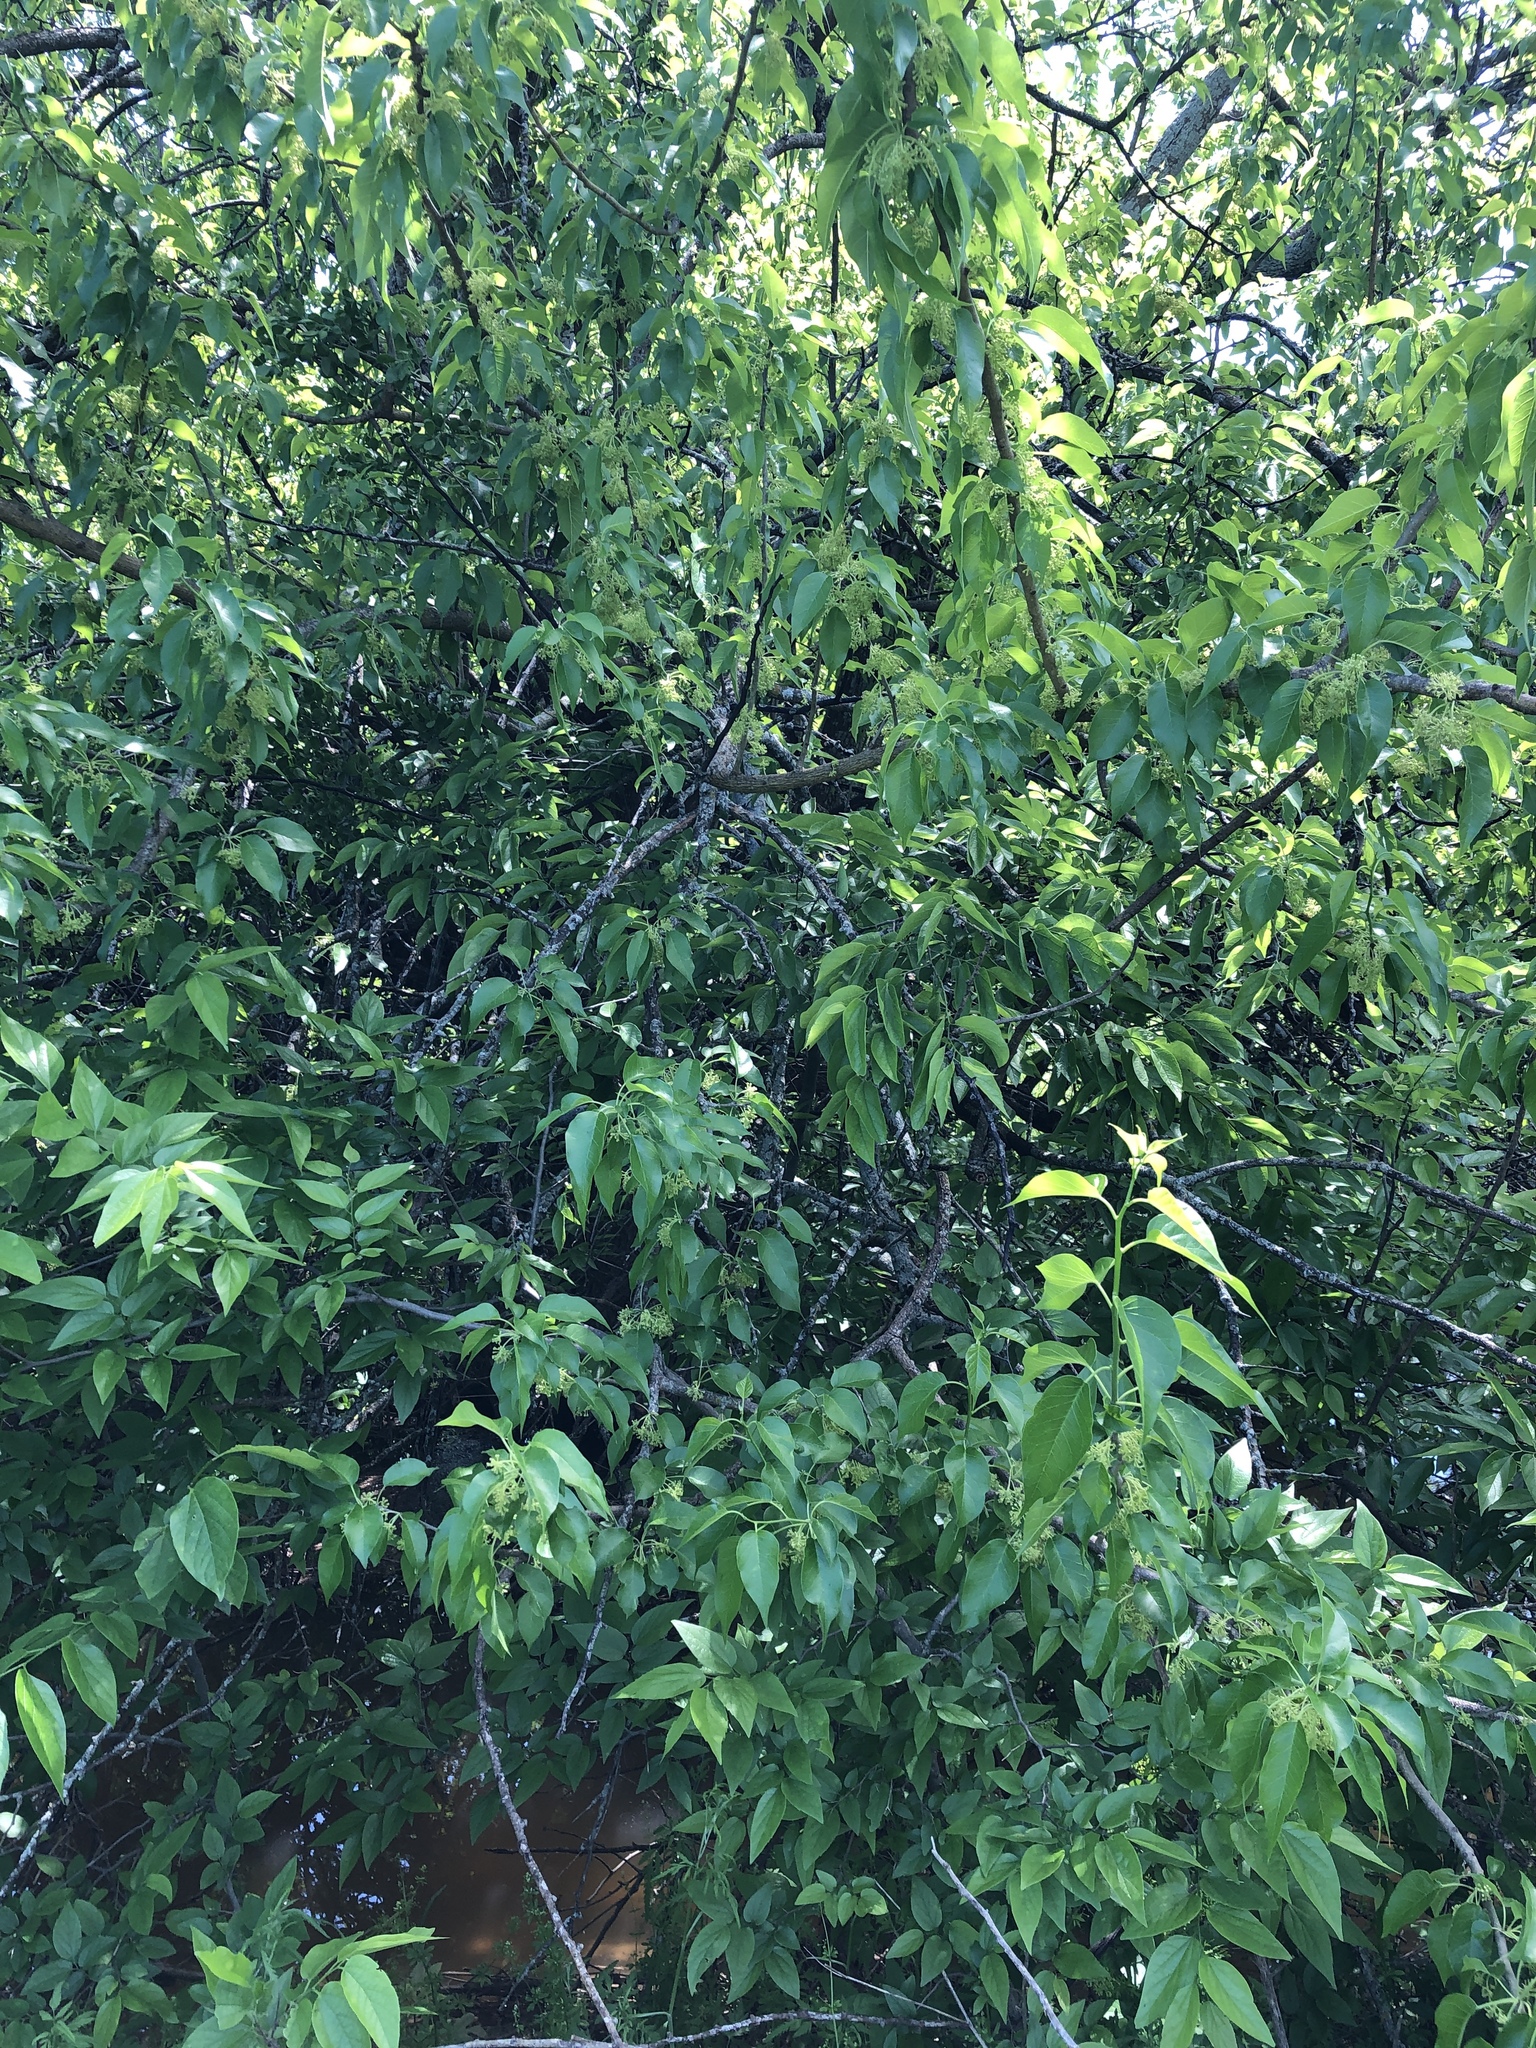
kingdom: Plantae
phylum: Tracheophyta
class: Magnoliopsida
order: Rosales
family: Moraceae
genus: Maclura
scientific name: Maclura pomifera
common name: Osage-orange
